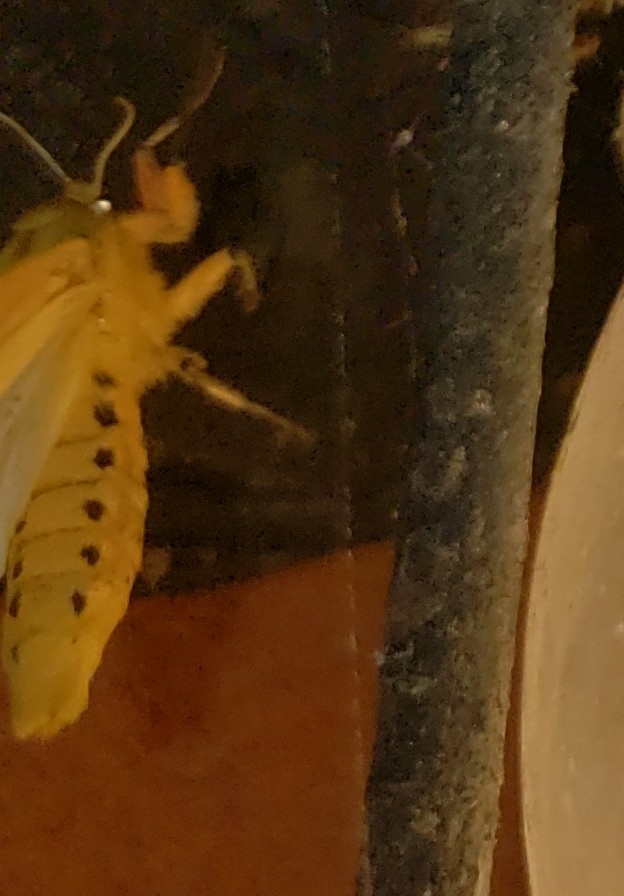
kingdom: Animalia
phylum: Arthropoda
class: Insecta
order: Lepidoptera
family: Erebidae
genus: Pyrrharctia
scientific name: Pyrrharctia isabella
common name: Isabella tiger moth
